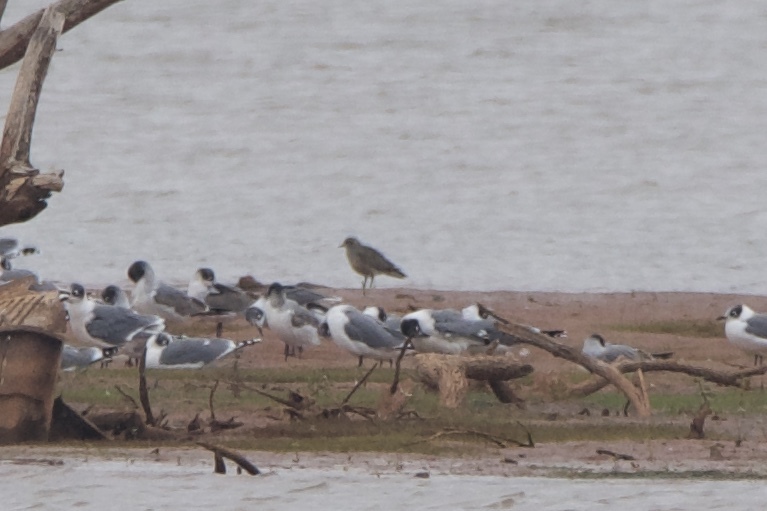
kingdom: Animalia
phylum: Chordata
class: Aves
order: Charadriiformes
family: Charadriidae
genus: Pluvialis
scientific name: Pluvialis dominica
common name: American golden plover
